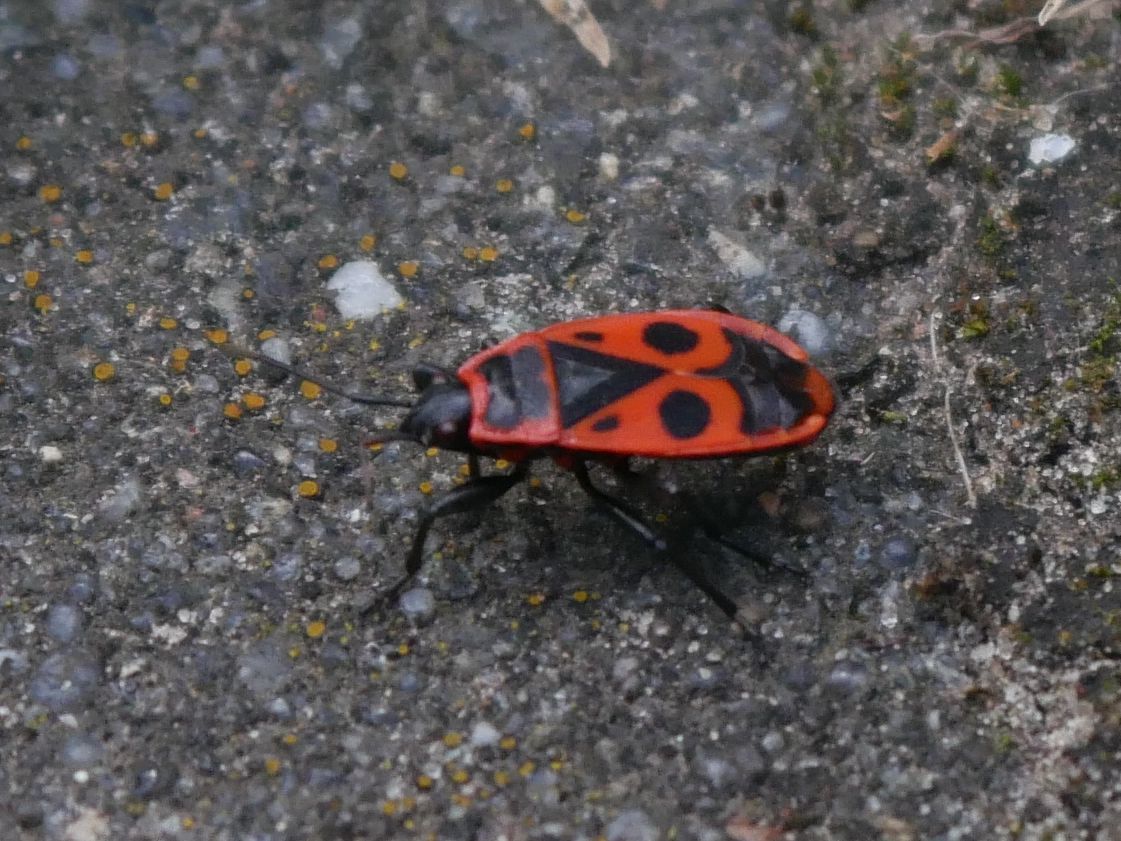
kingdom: Animalia
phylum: Arthropoda
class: Insecta
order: Hemiptera
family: Pyrrhocoridae
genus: Pyrrhocoris
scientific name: Pyrrhocoris apterus
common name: Firebug
